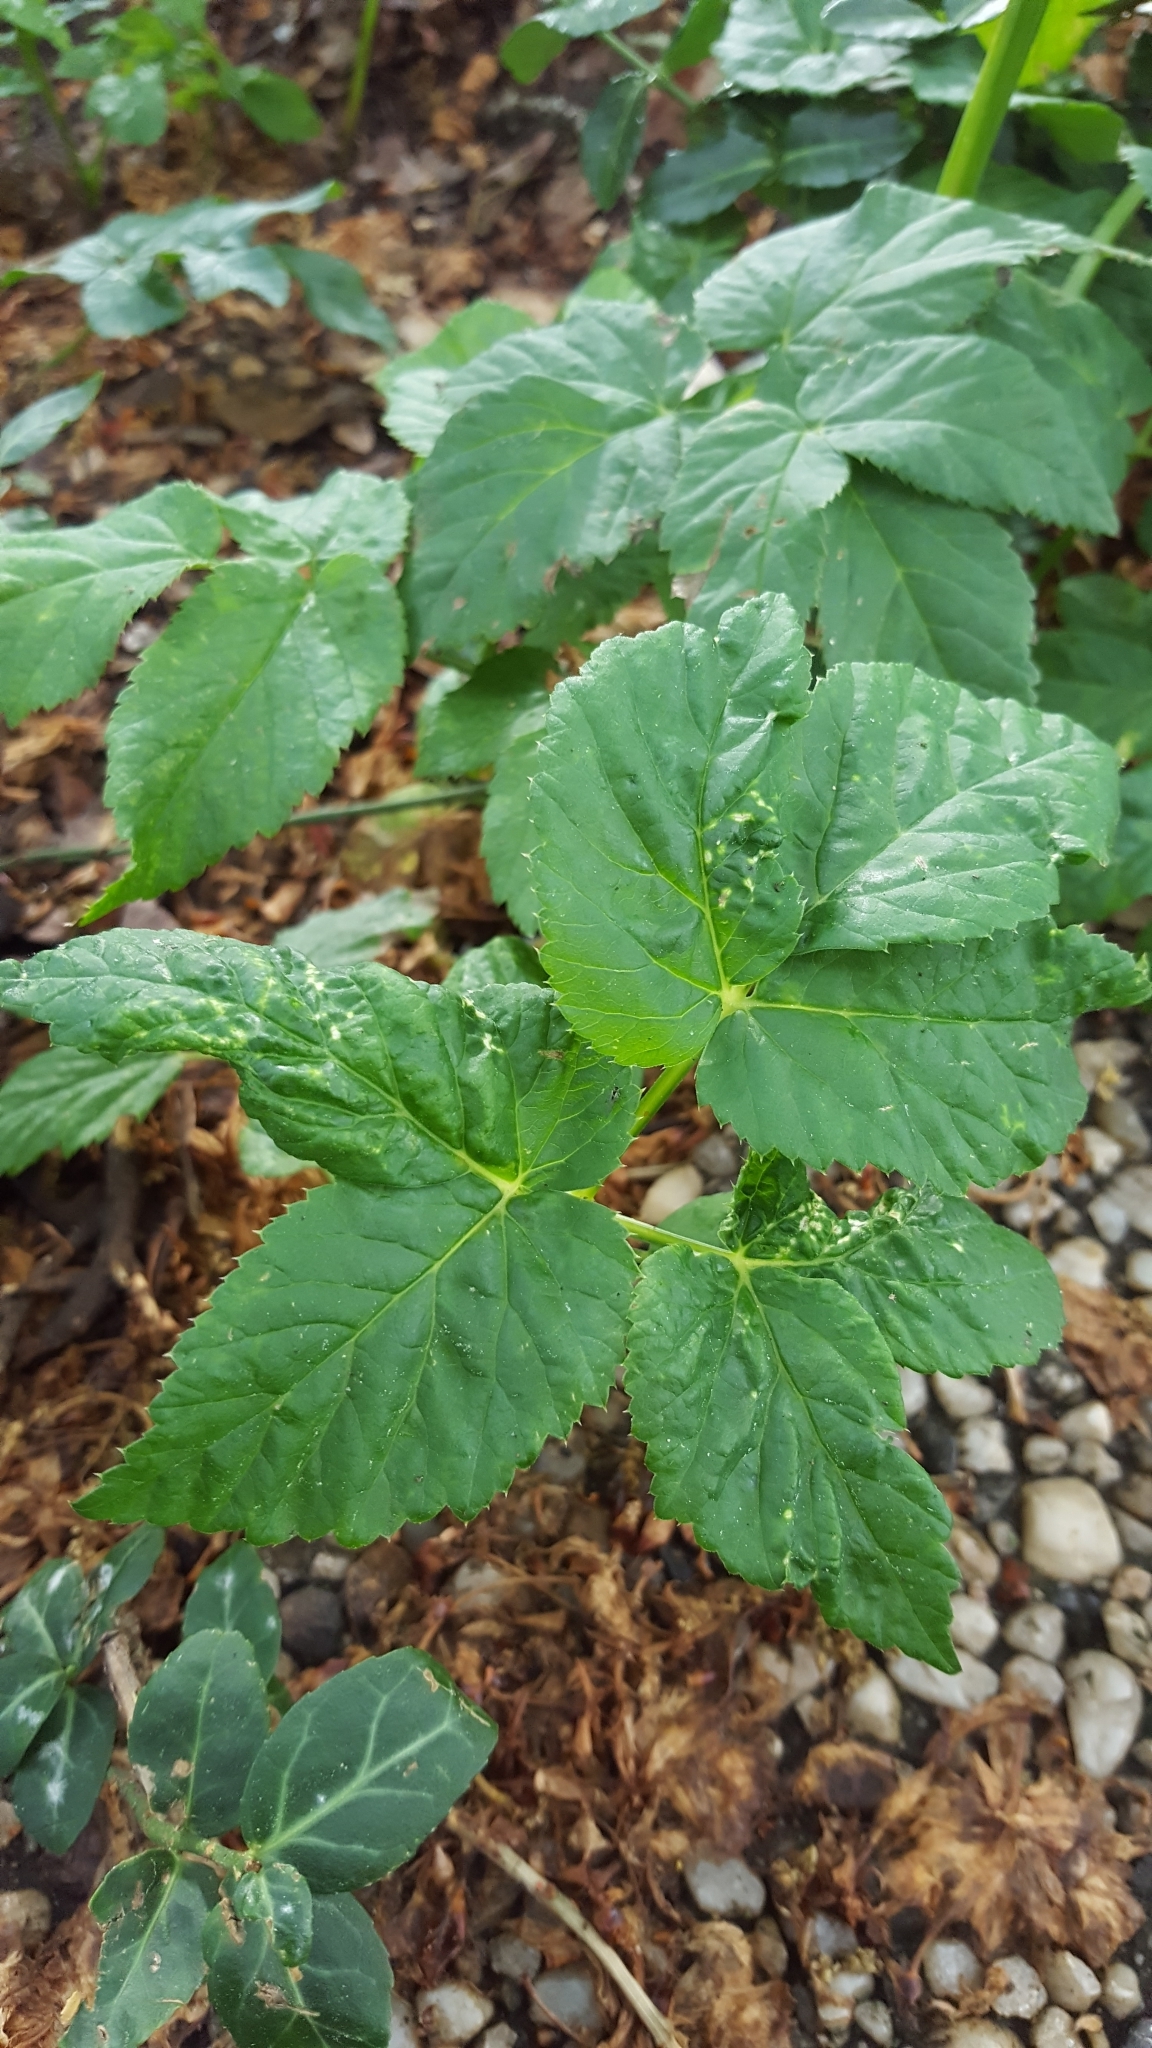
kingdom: Plantae
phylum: Tracheophyta
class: Magnoliopsida
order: Apiales
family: Apiaceae
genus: Aegopodium
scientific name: Aegopodium podagraria
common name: Ground-elder
